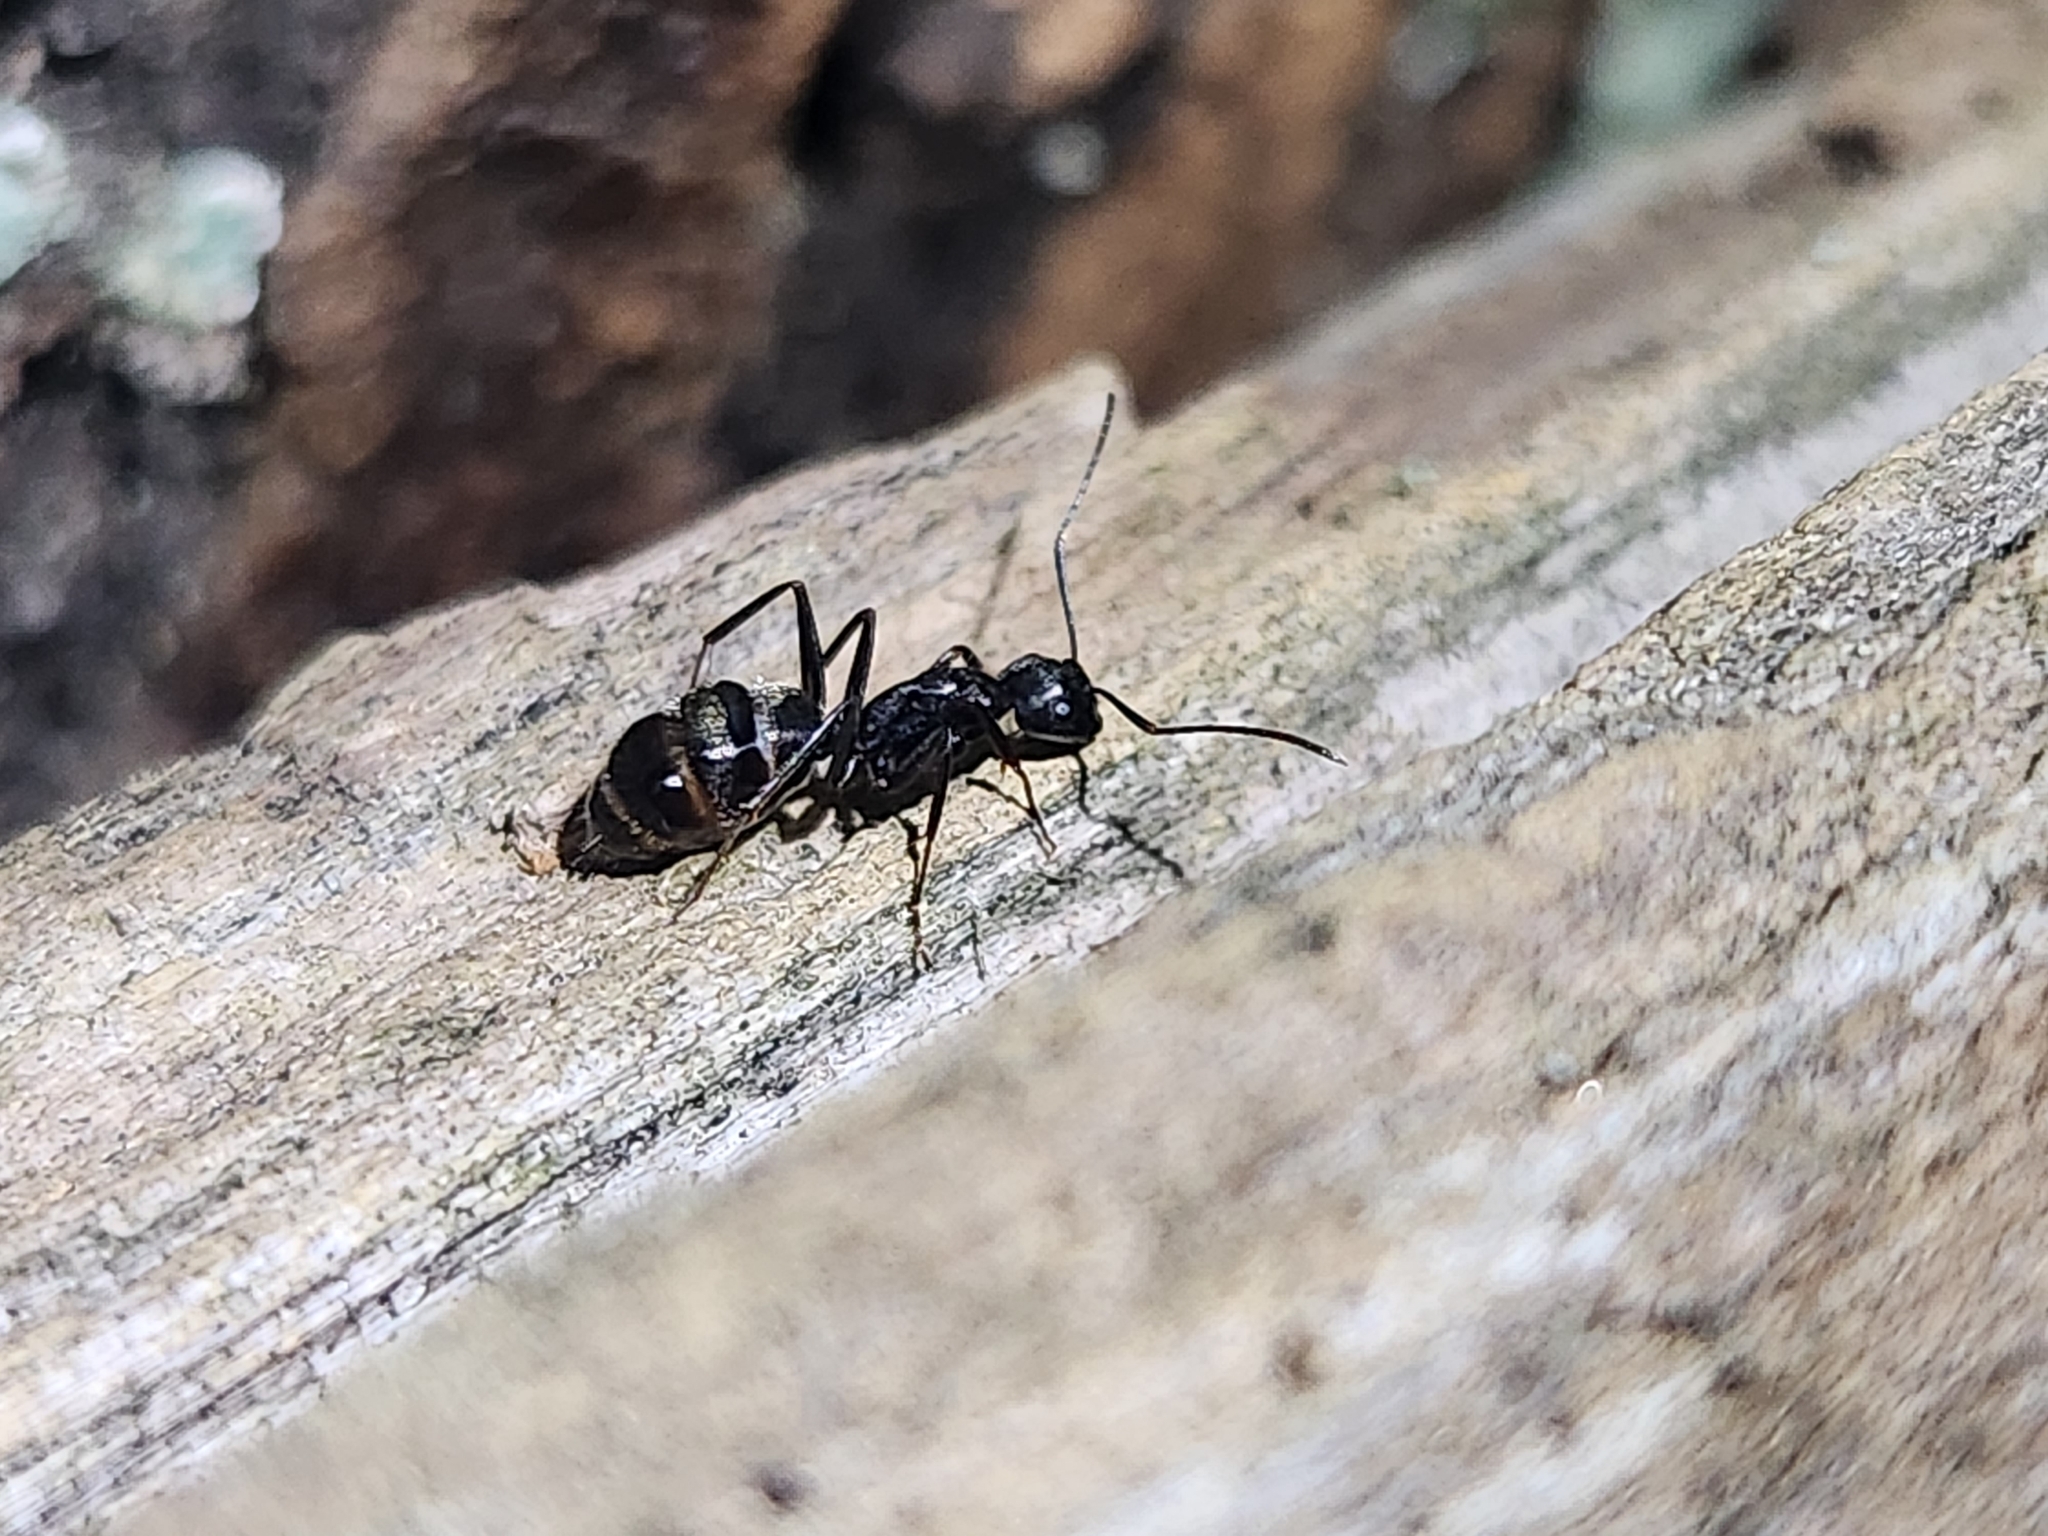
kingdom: Animalia
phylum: Arthropoda
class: Insecta
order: Hymenoptera
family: Formicidae
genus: Camponotus
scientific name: Camponotus pennsylvanicus
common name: Black carpenter ant
